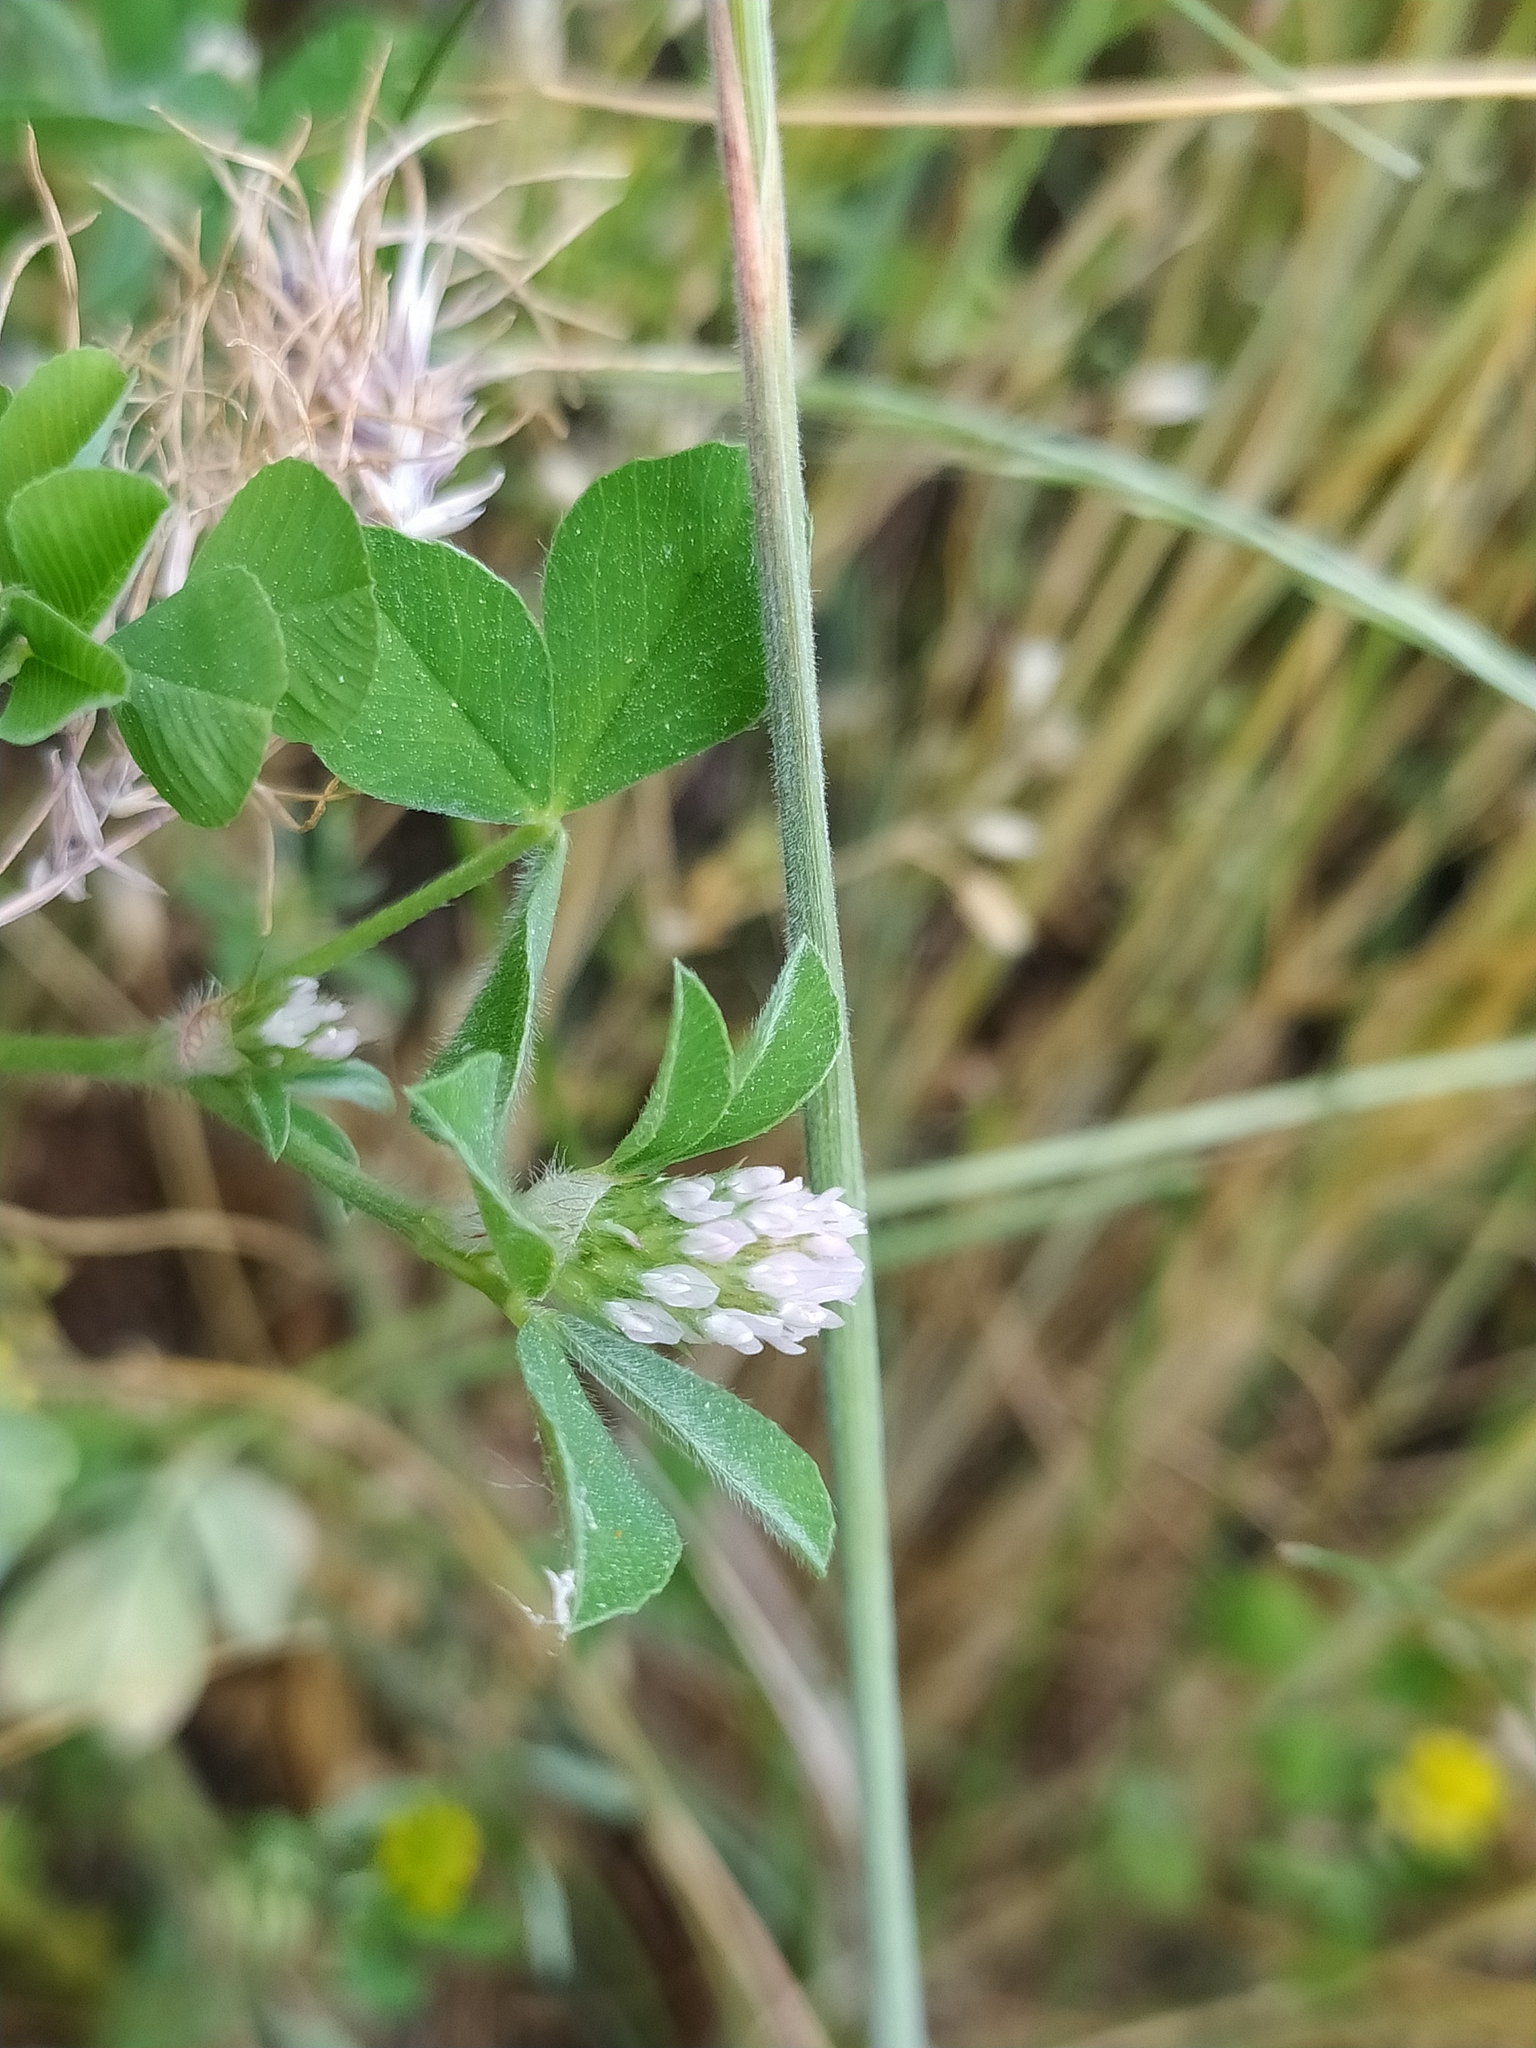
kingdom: Plantae
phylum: Tracheophyta
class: Magnoliopsida
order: Fabales
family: Fabaceae
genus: Trifolium
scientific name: Trifolium striatum
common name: Knotted clover
